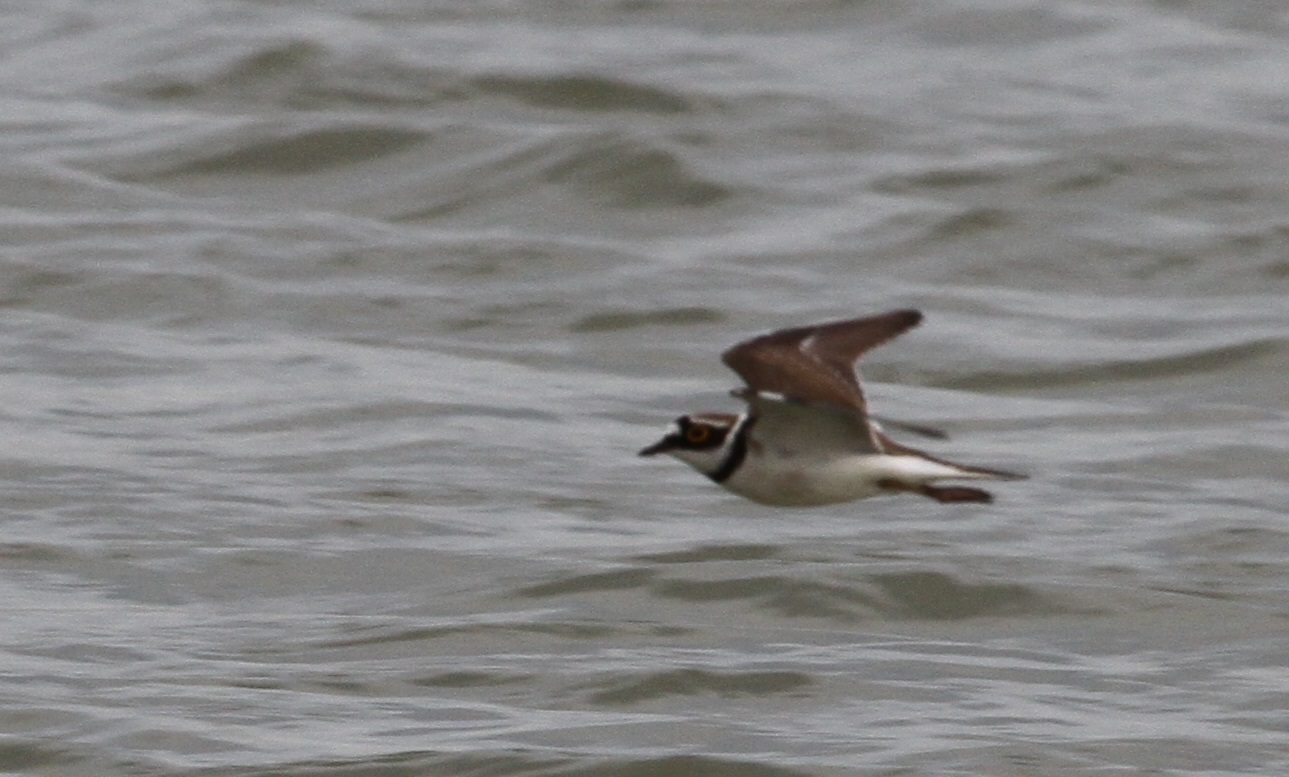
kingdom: Animalia
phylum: Chordata
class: Aves
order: Charadriiformes
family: Charadriidae
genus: Charadrius
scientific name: Charadrius dubius
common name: Little ringed plover
